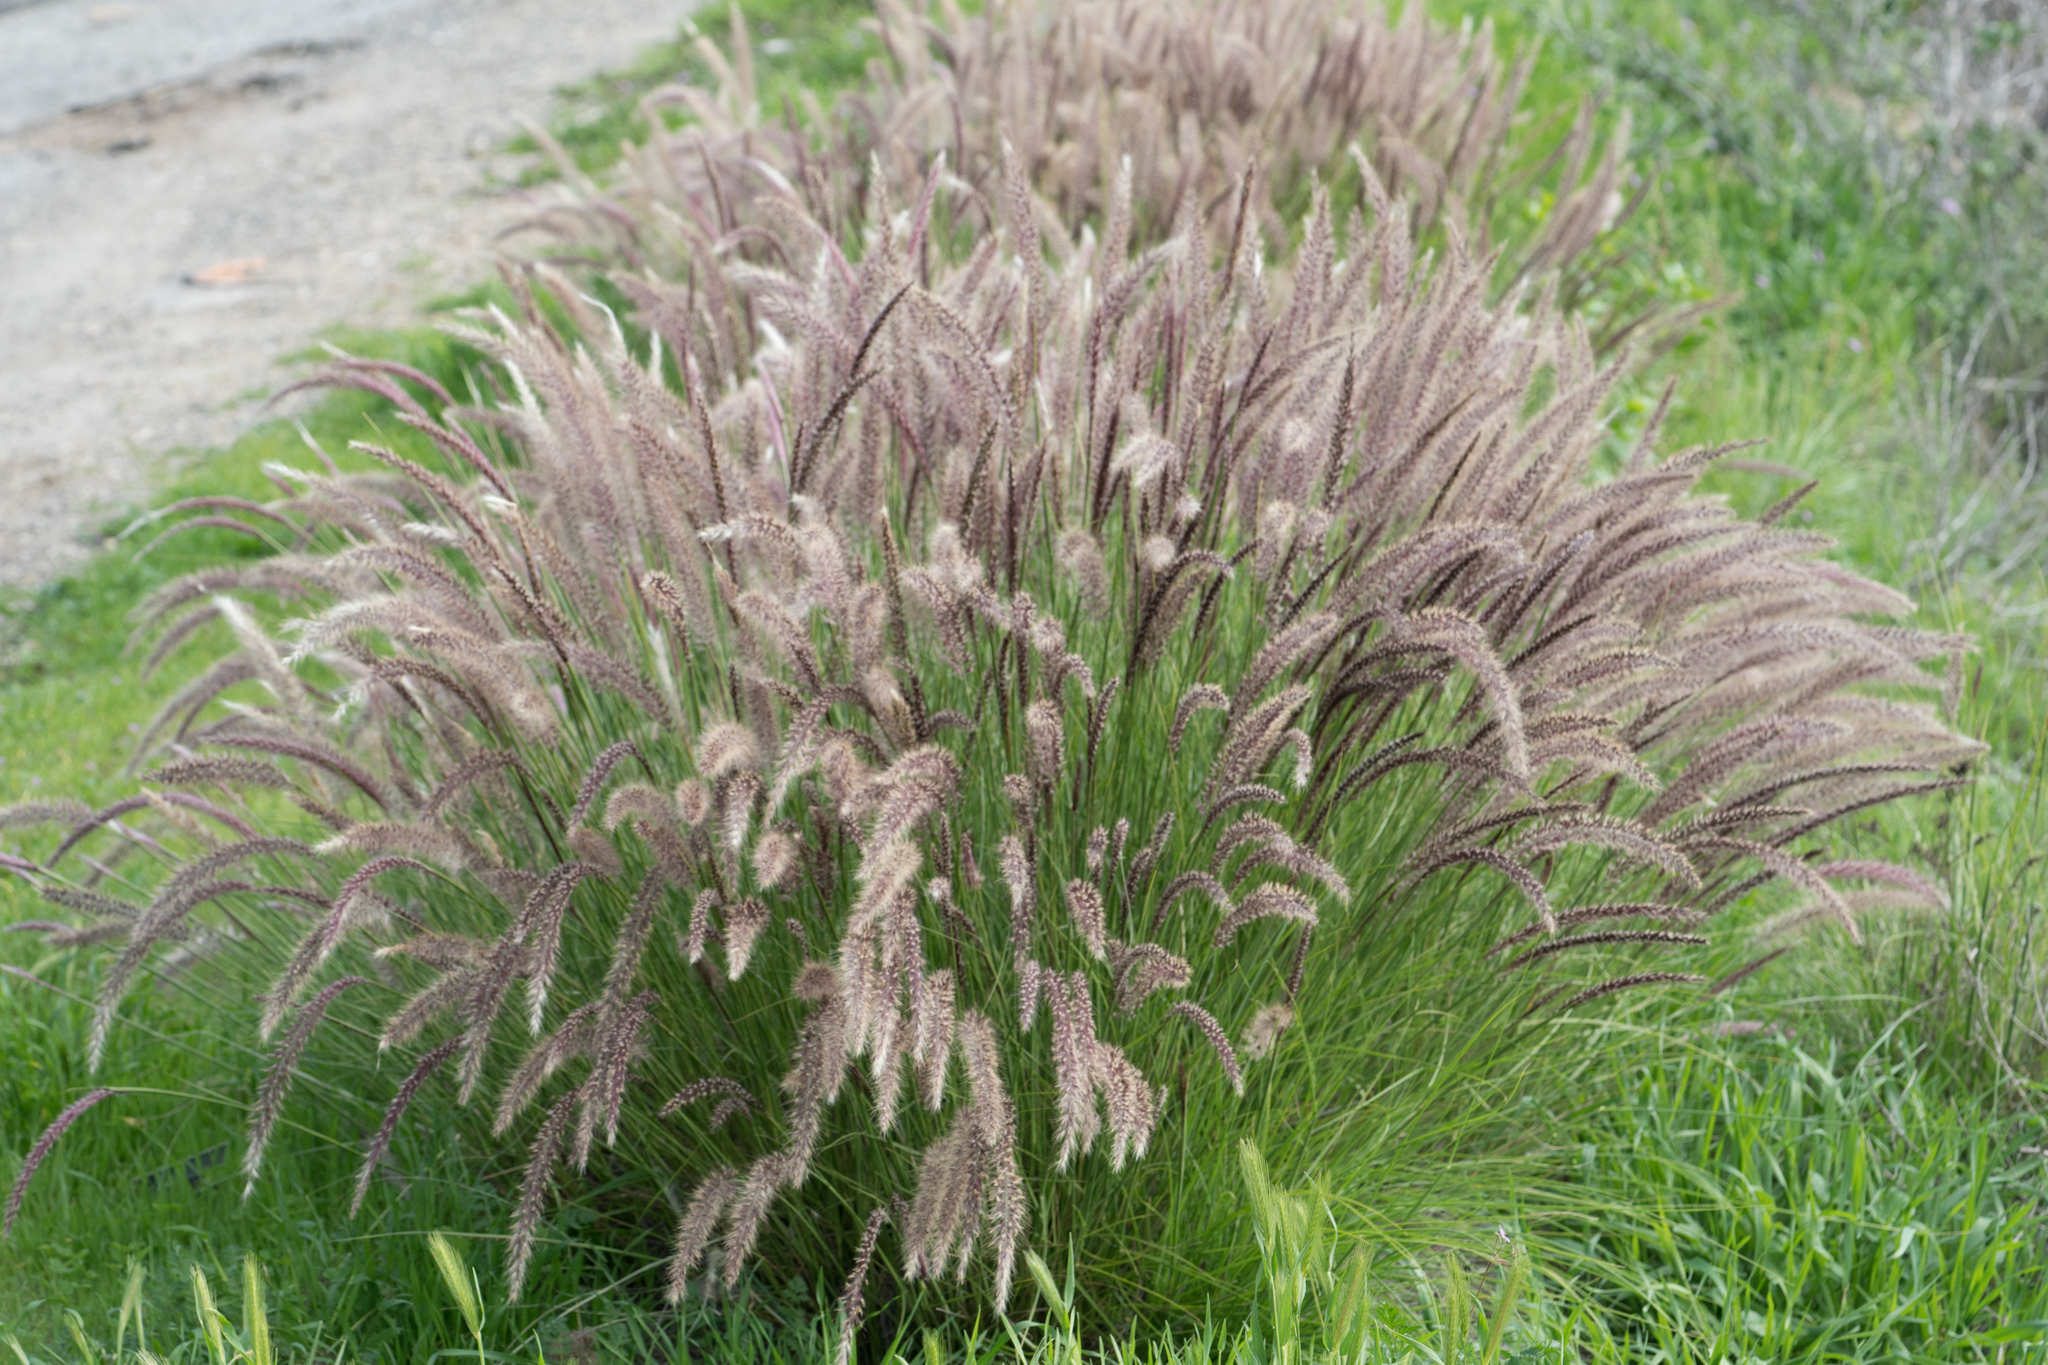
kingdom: Plantae
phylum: Tracheophyta
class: Liliopsida
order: Poales
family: Poaceae
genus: Cenchrus
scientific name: Cenchrus setaceus
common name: Crimson fountaingrass
